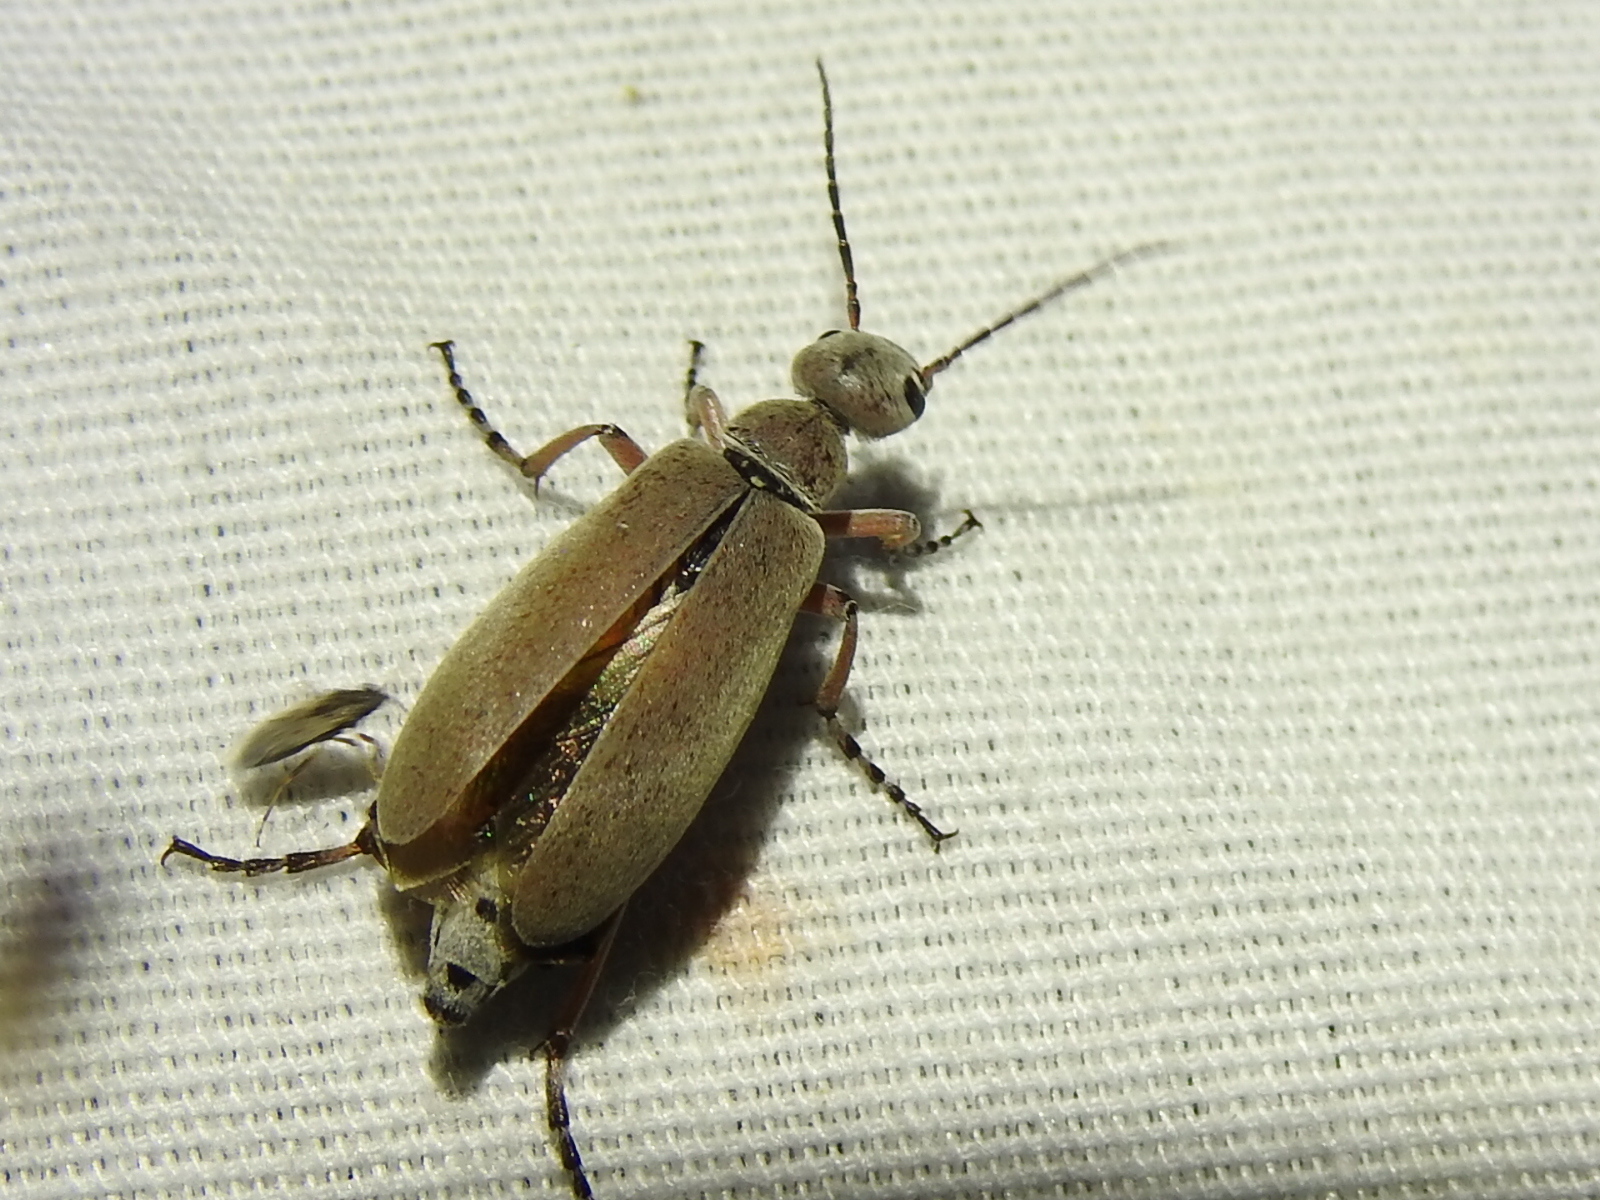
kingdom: Animalia
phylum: Arthropoda
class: Insecta
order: Coleoptera
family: Meloidae
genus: Epicauta
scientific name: Epicauta nigritarsis
